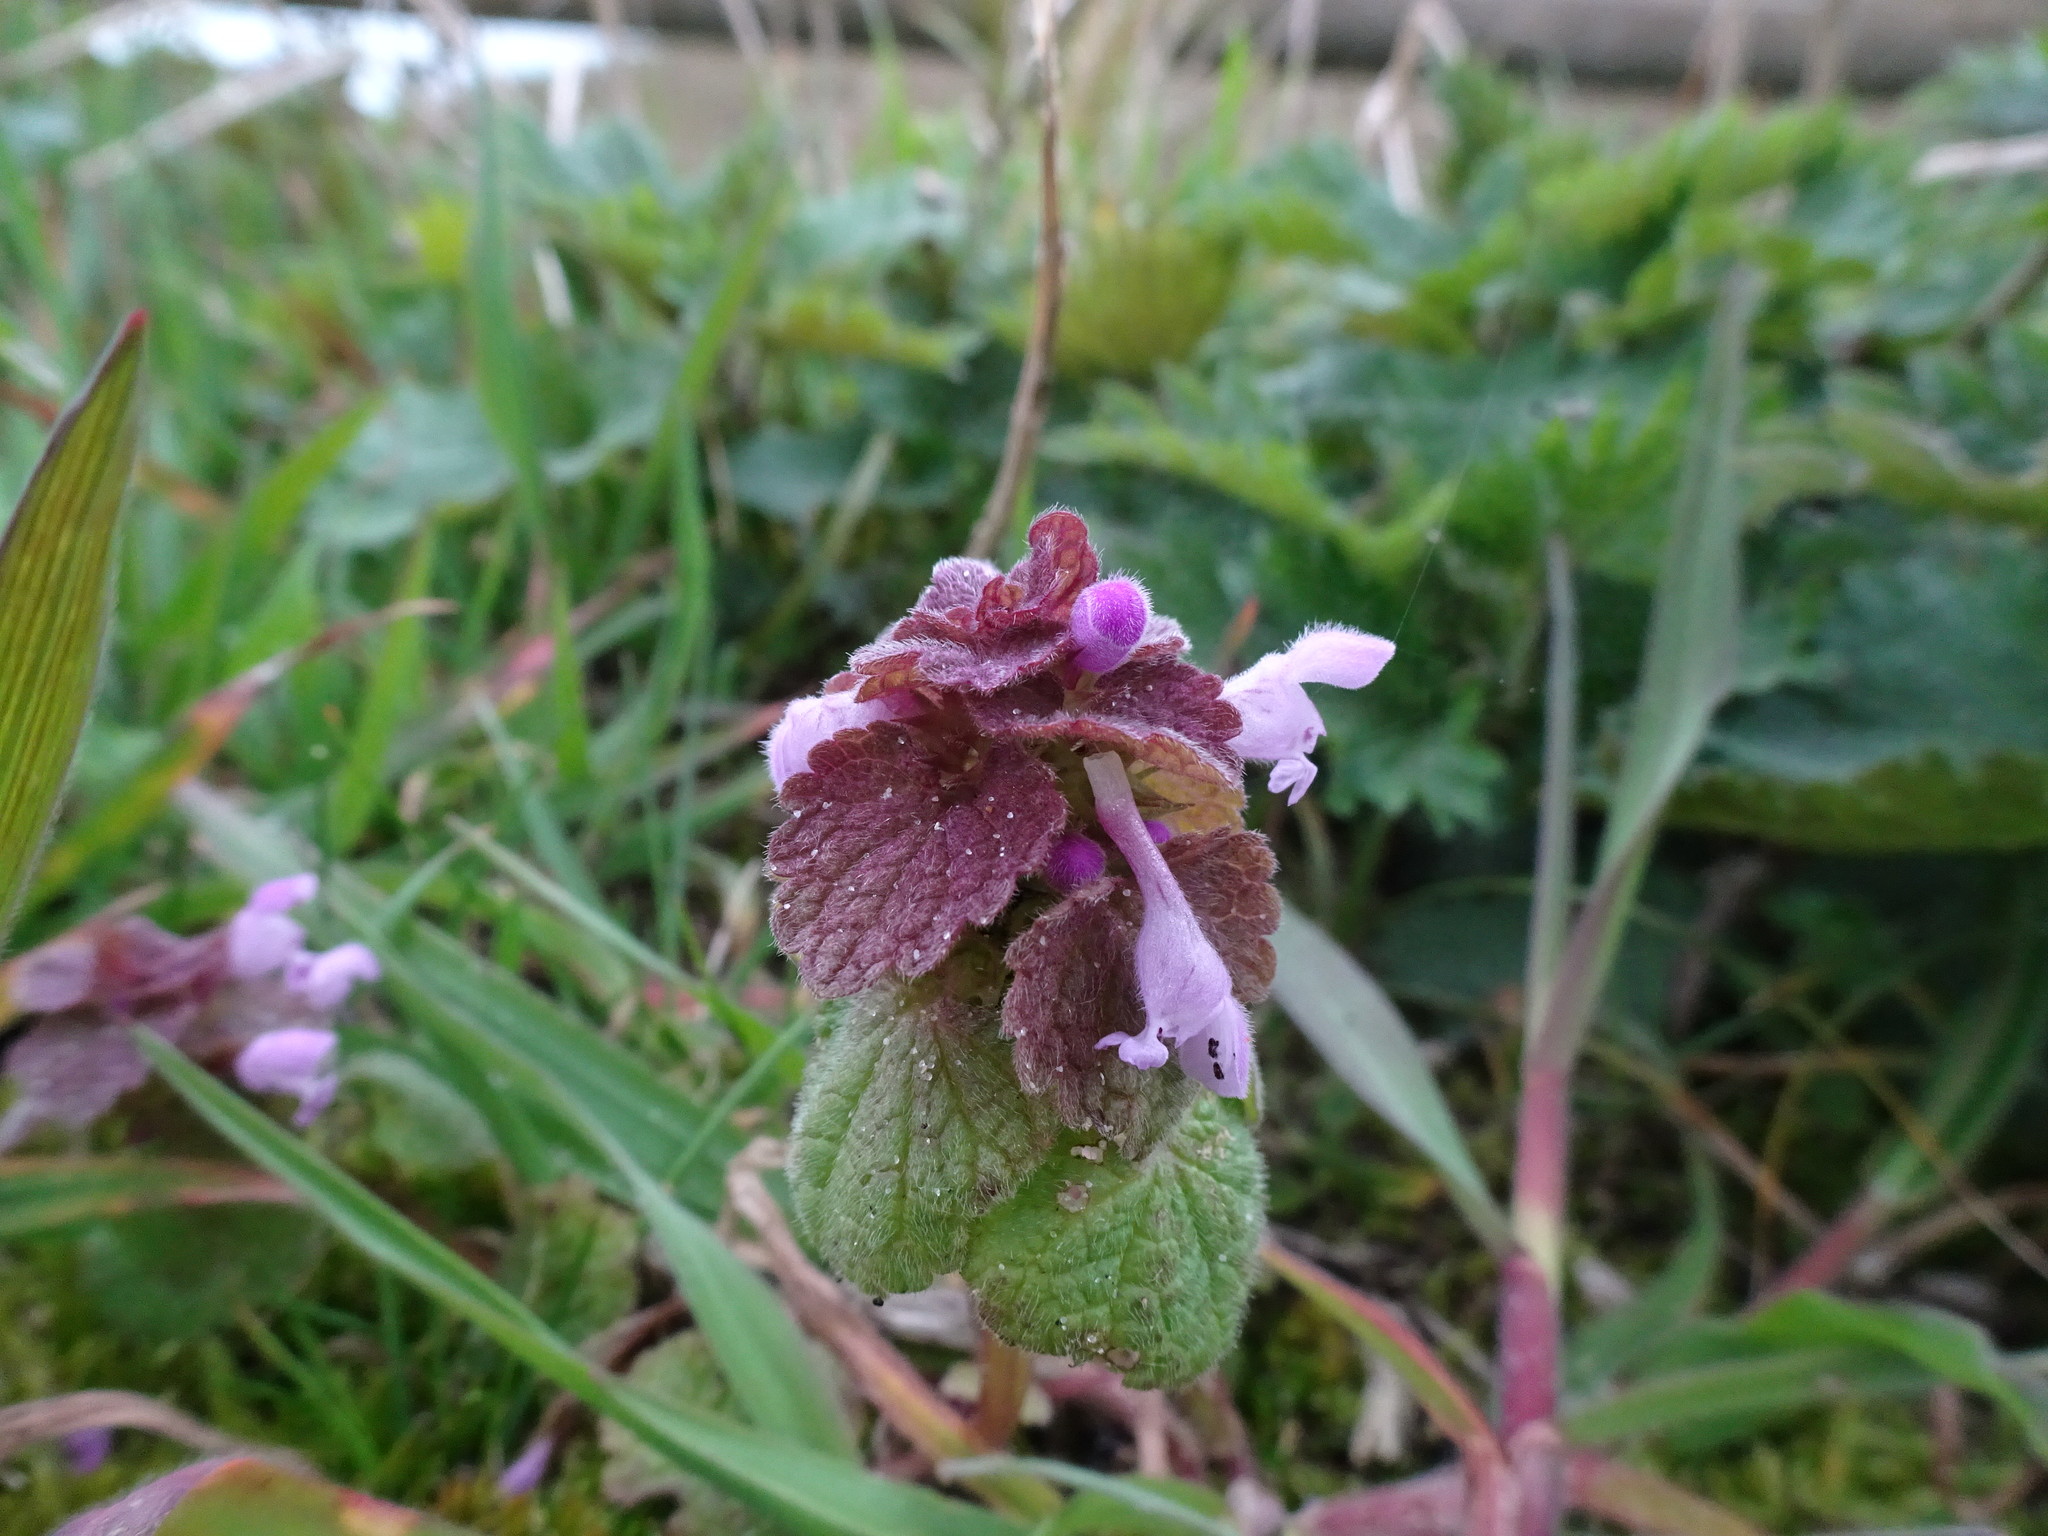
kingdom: Plantae
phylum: Tracheophyta
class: Magnoliopsida
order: Lamiales
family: Lamiaceae
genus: Lamium
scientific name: Lamium purpureum
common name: Red dead-nettle
